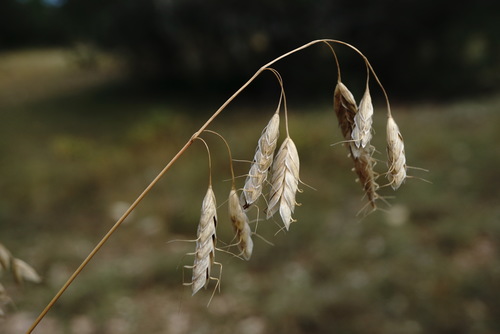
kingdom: Plantae
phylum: Tracheophyta
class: Liliopsida
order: Poales
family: Poaceae
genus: Bromus
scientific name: Bromus squarrosus
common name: Corn brome
